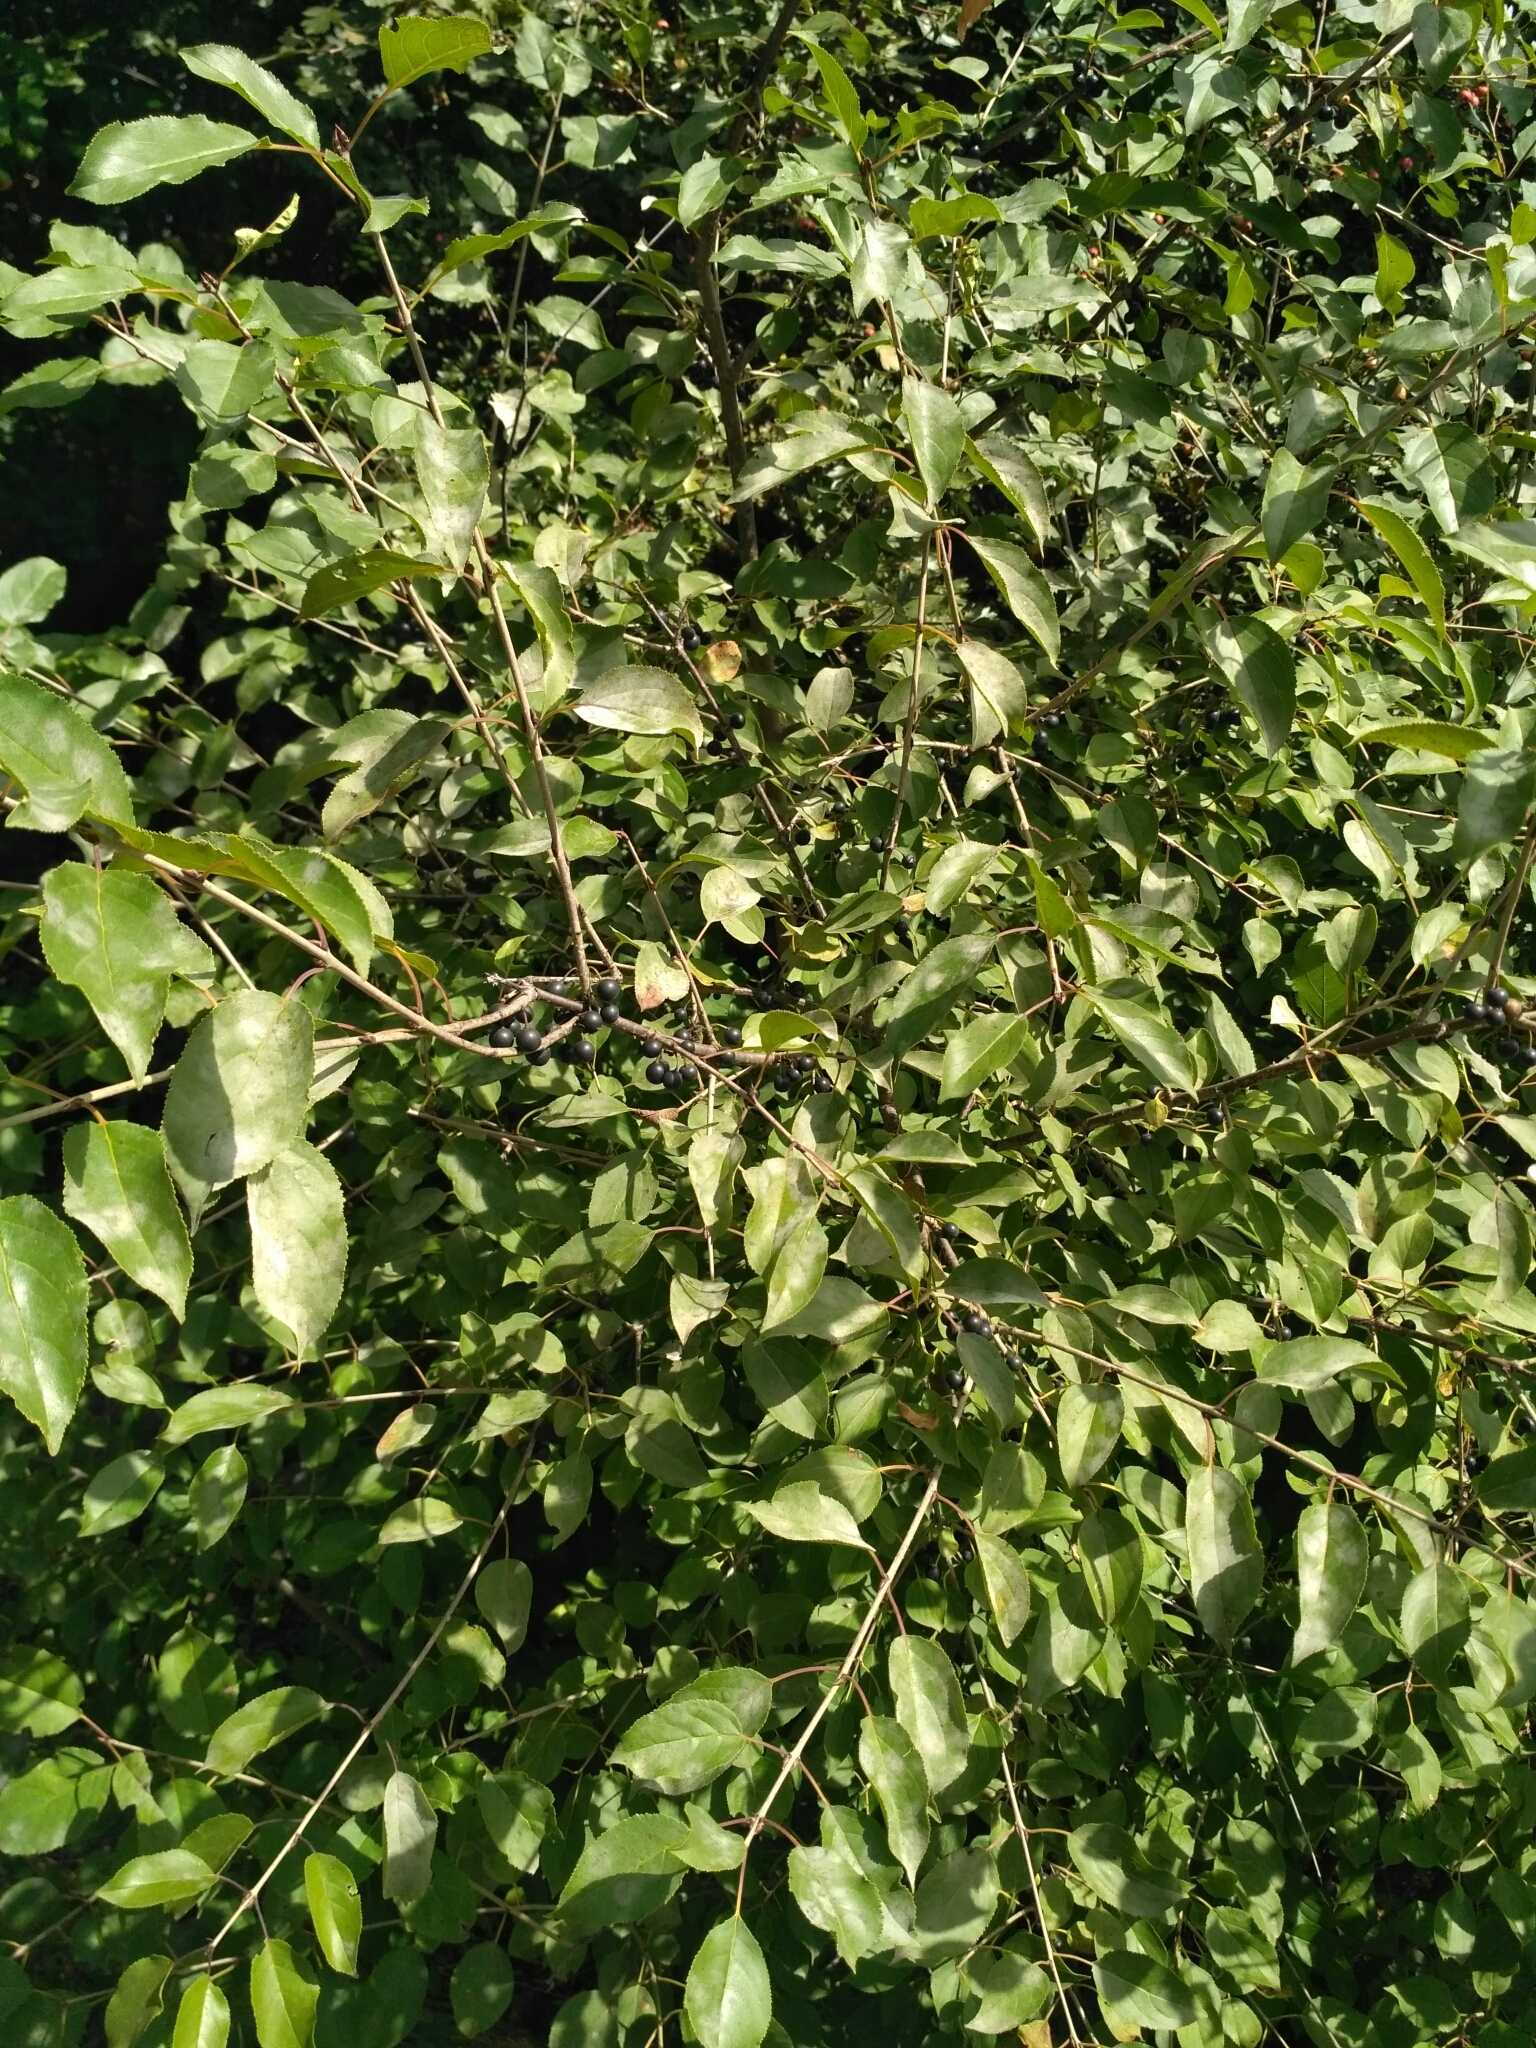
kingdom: Plantae
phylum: Tracheophyta
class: Magnoliopsida
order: Rosales
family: Rhamnaceae
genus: Rhamnus
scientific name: Rhamnus cathartica
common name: Common buckthorn
